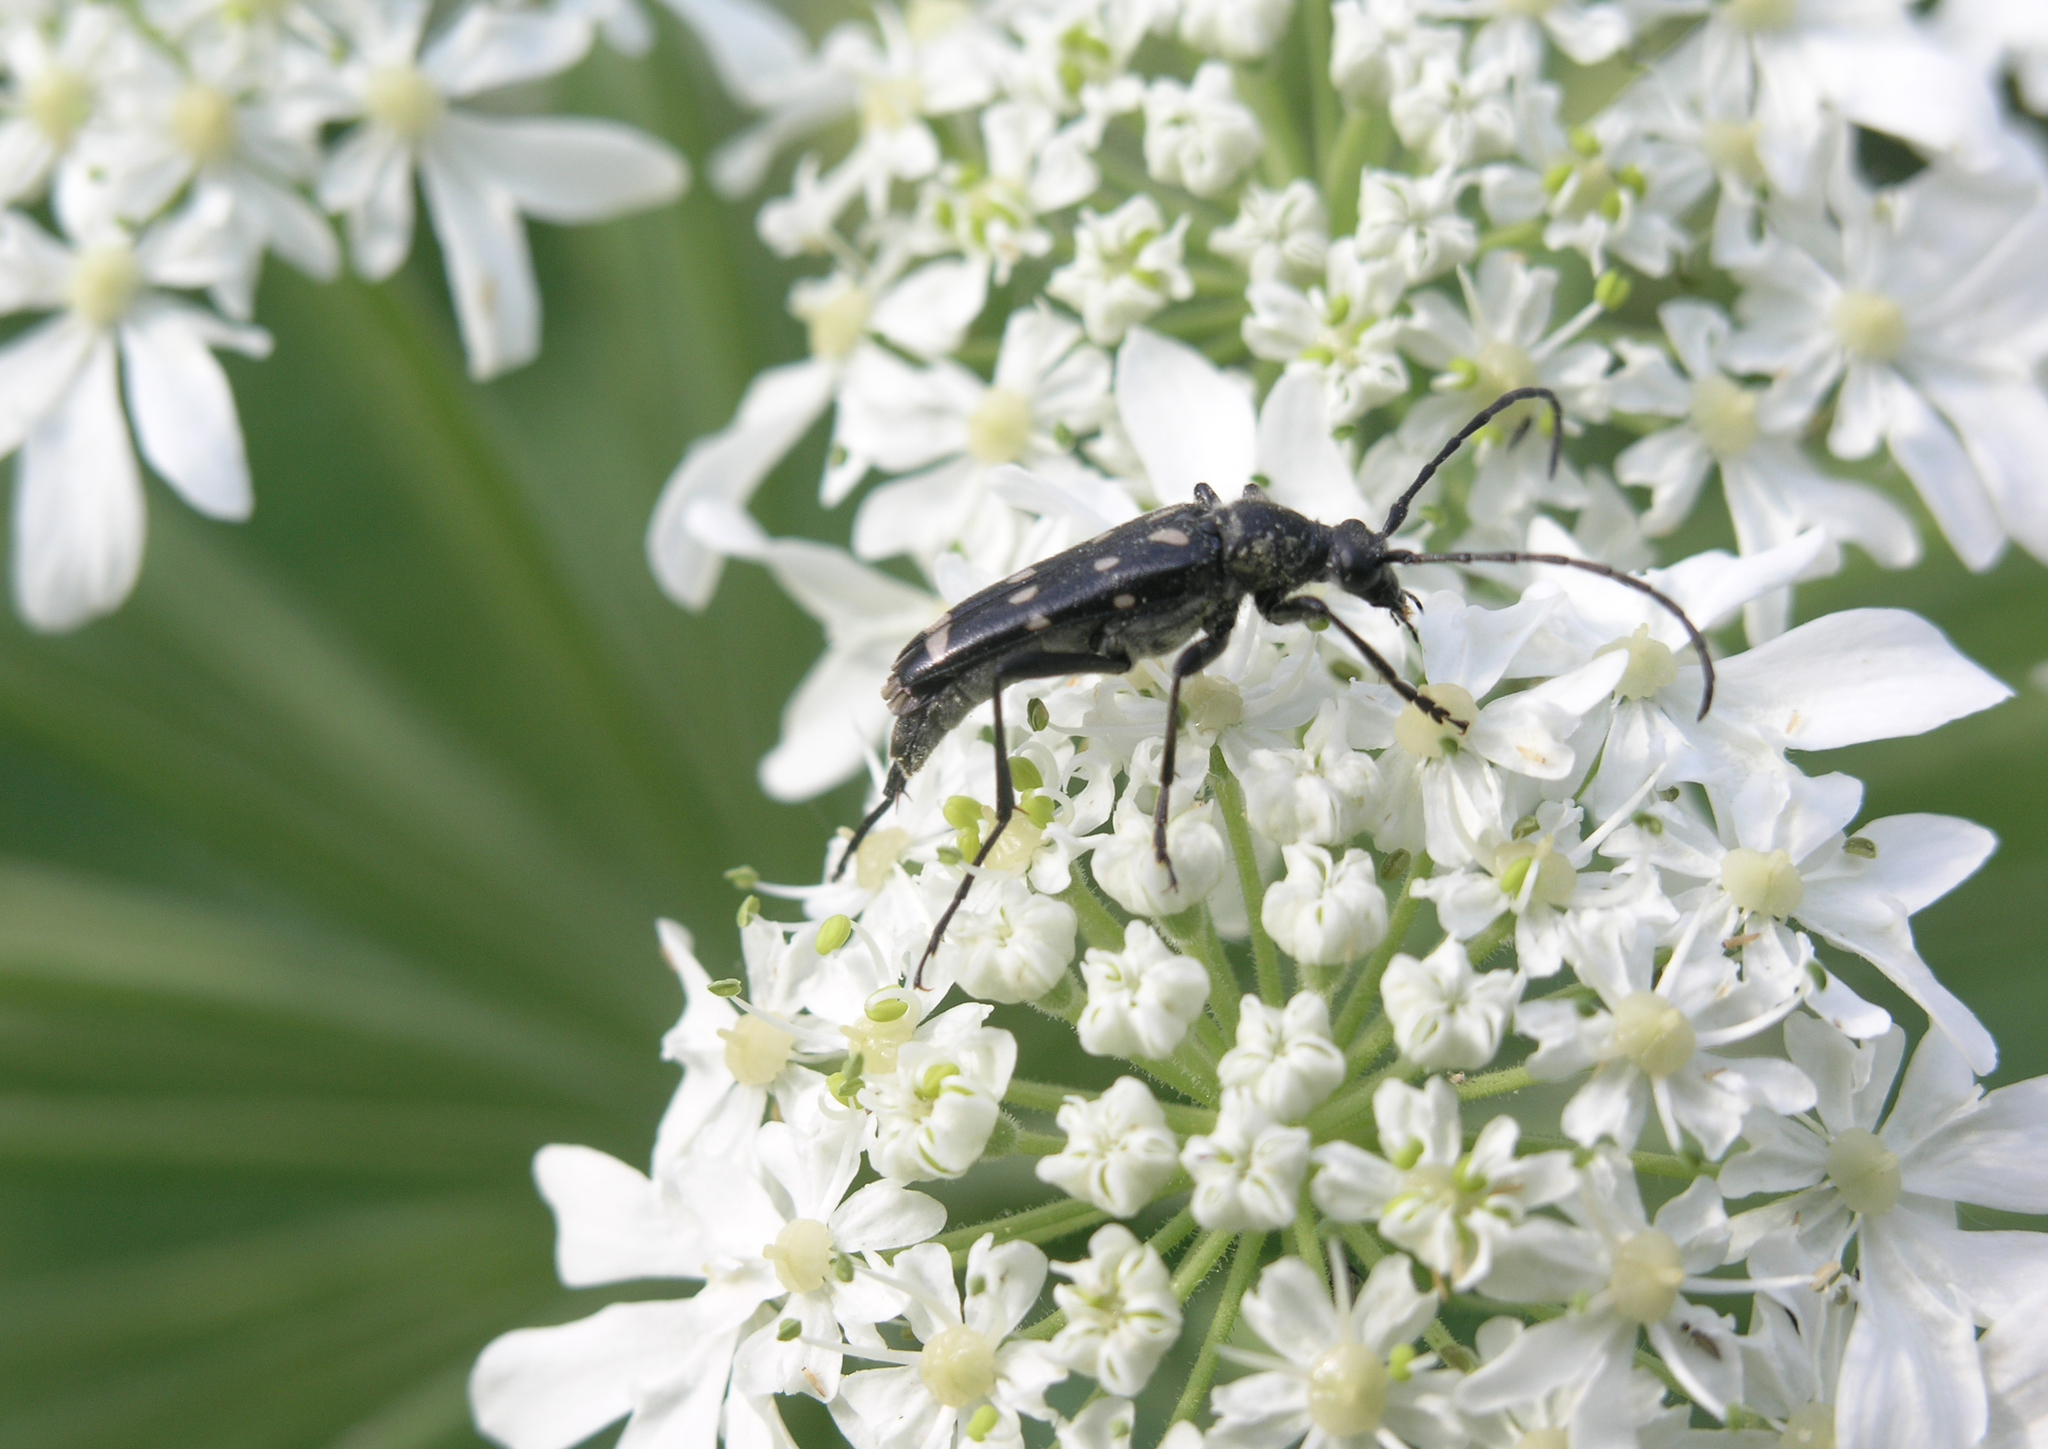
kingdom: Animalia
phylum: Arthropoda
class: Insecta
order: Coleoptera
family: Cerambycidae
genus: Leptura
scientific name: Leptura duodecimguttata
